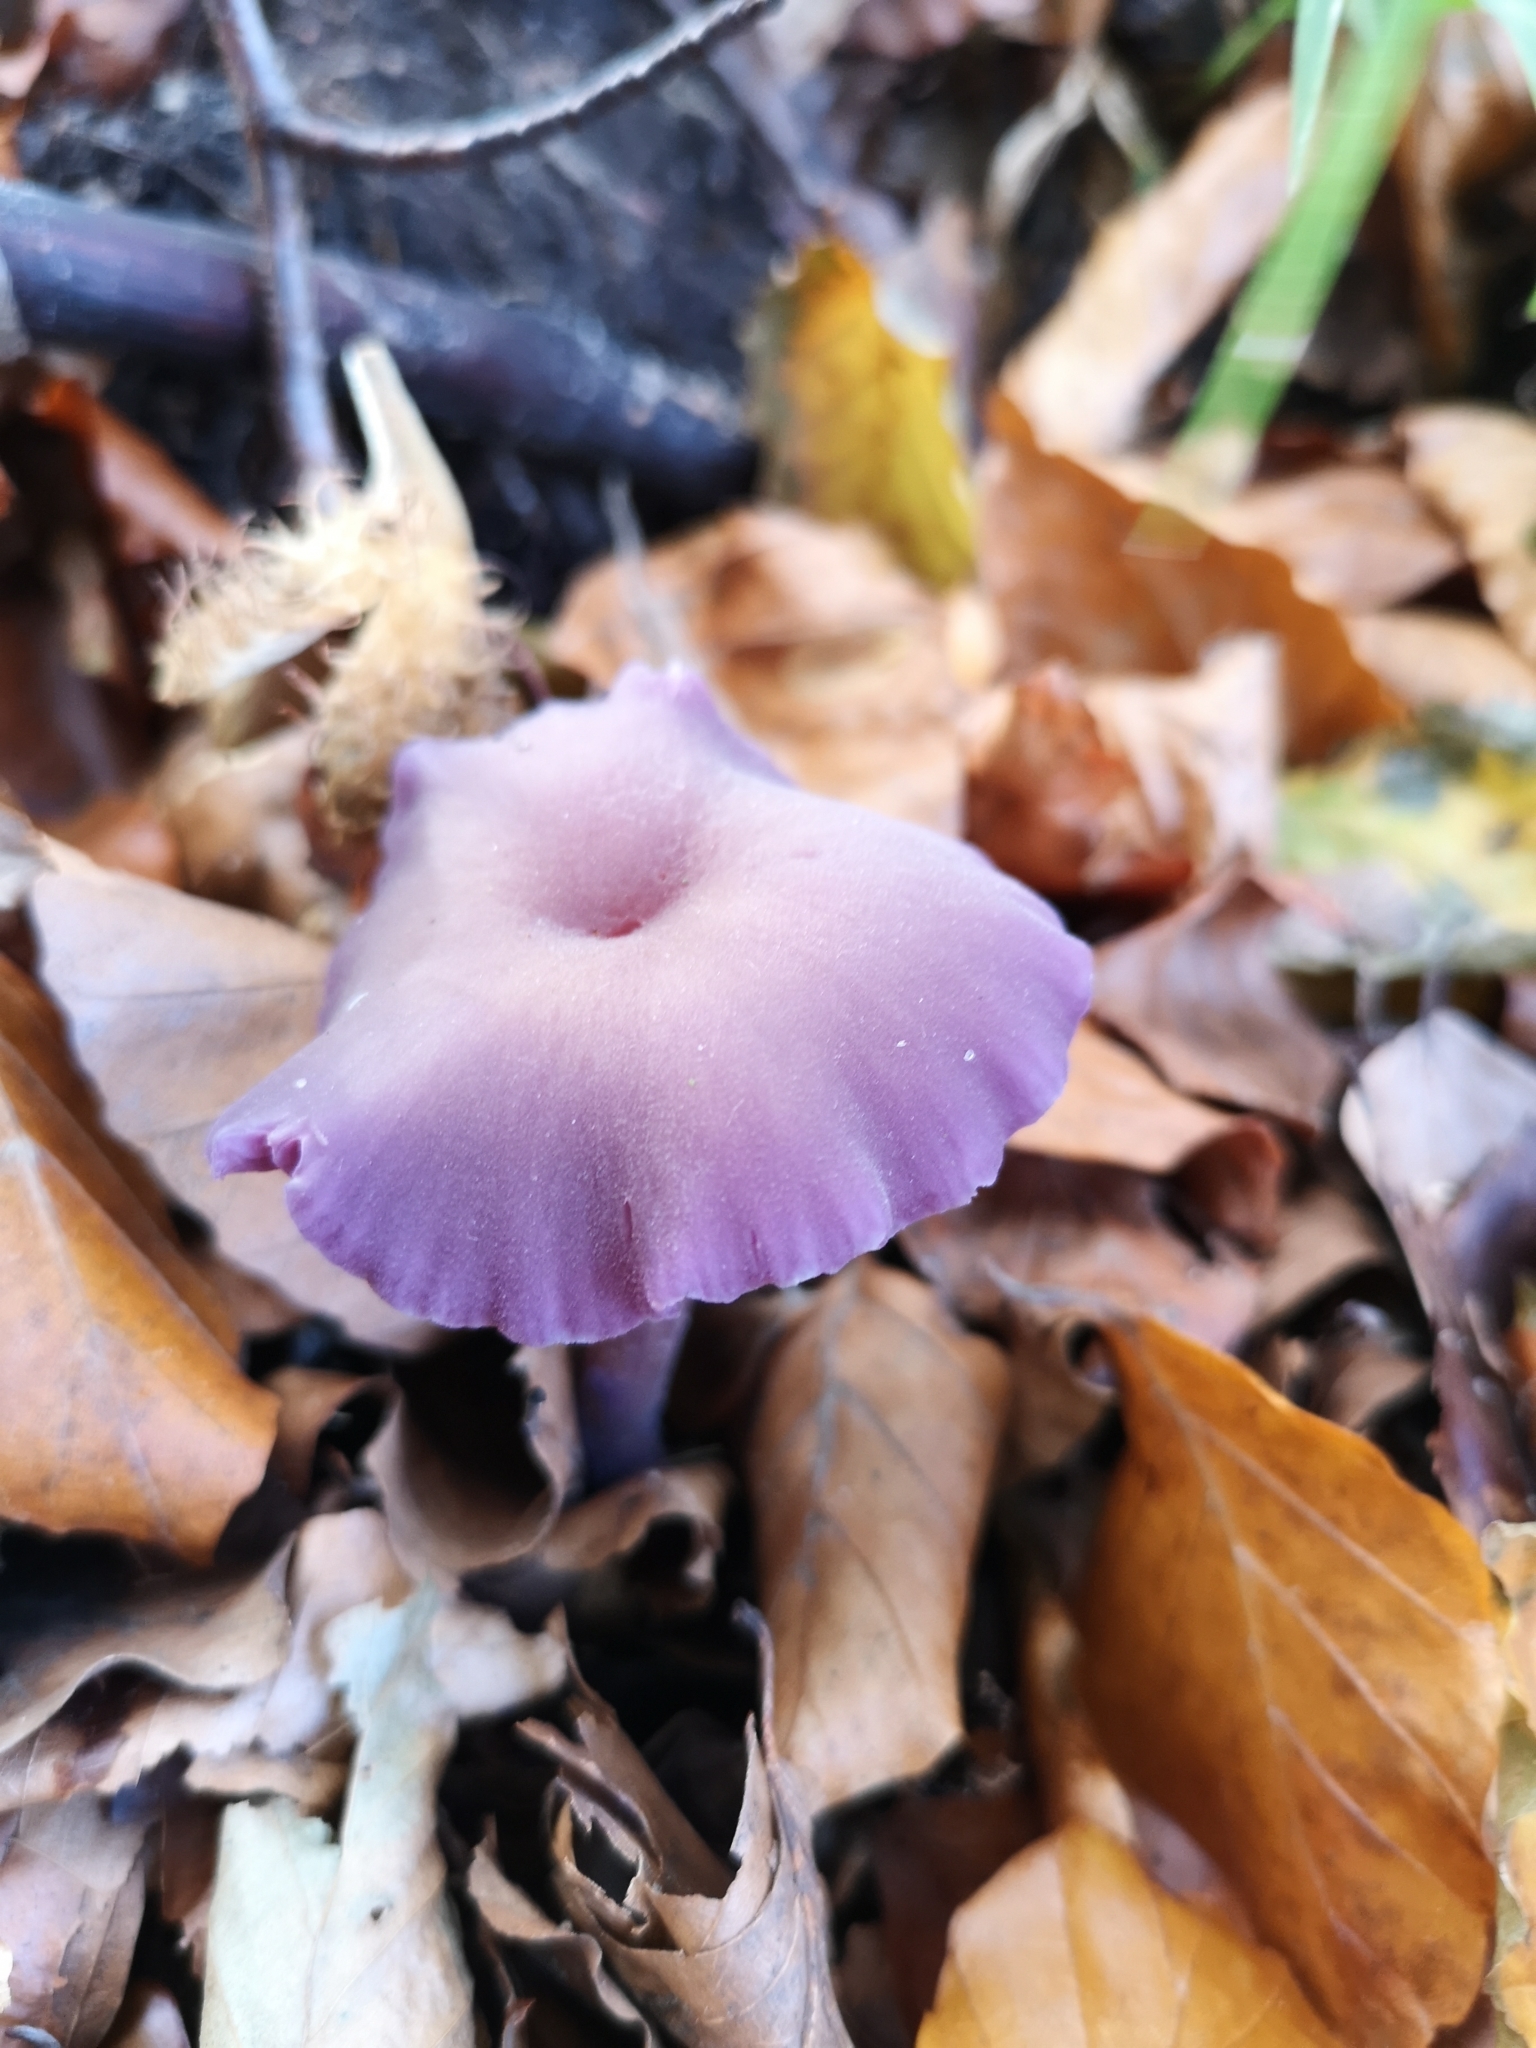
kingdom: Fungi
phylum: Basidiomycota
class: Agaricomycetes
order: Agaricales
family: Hydnangiaceae
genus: Laccaria
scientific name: Laccaria amethystina
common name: Amethyst deceiver
